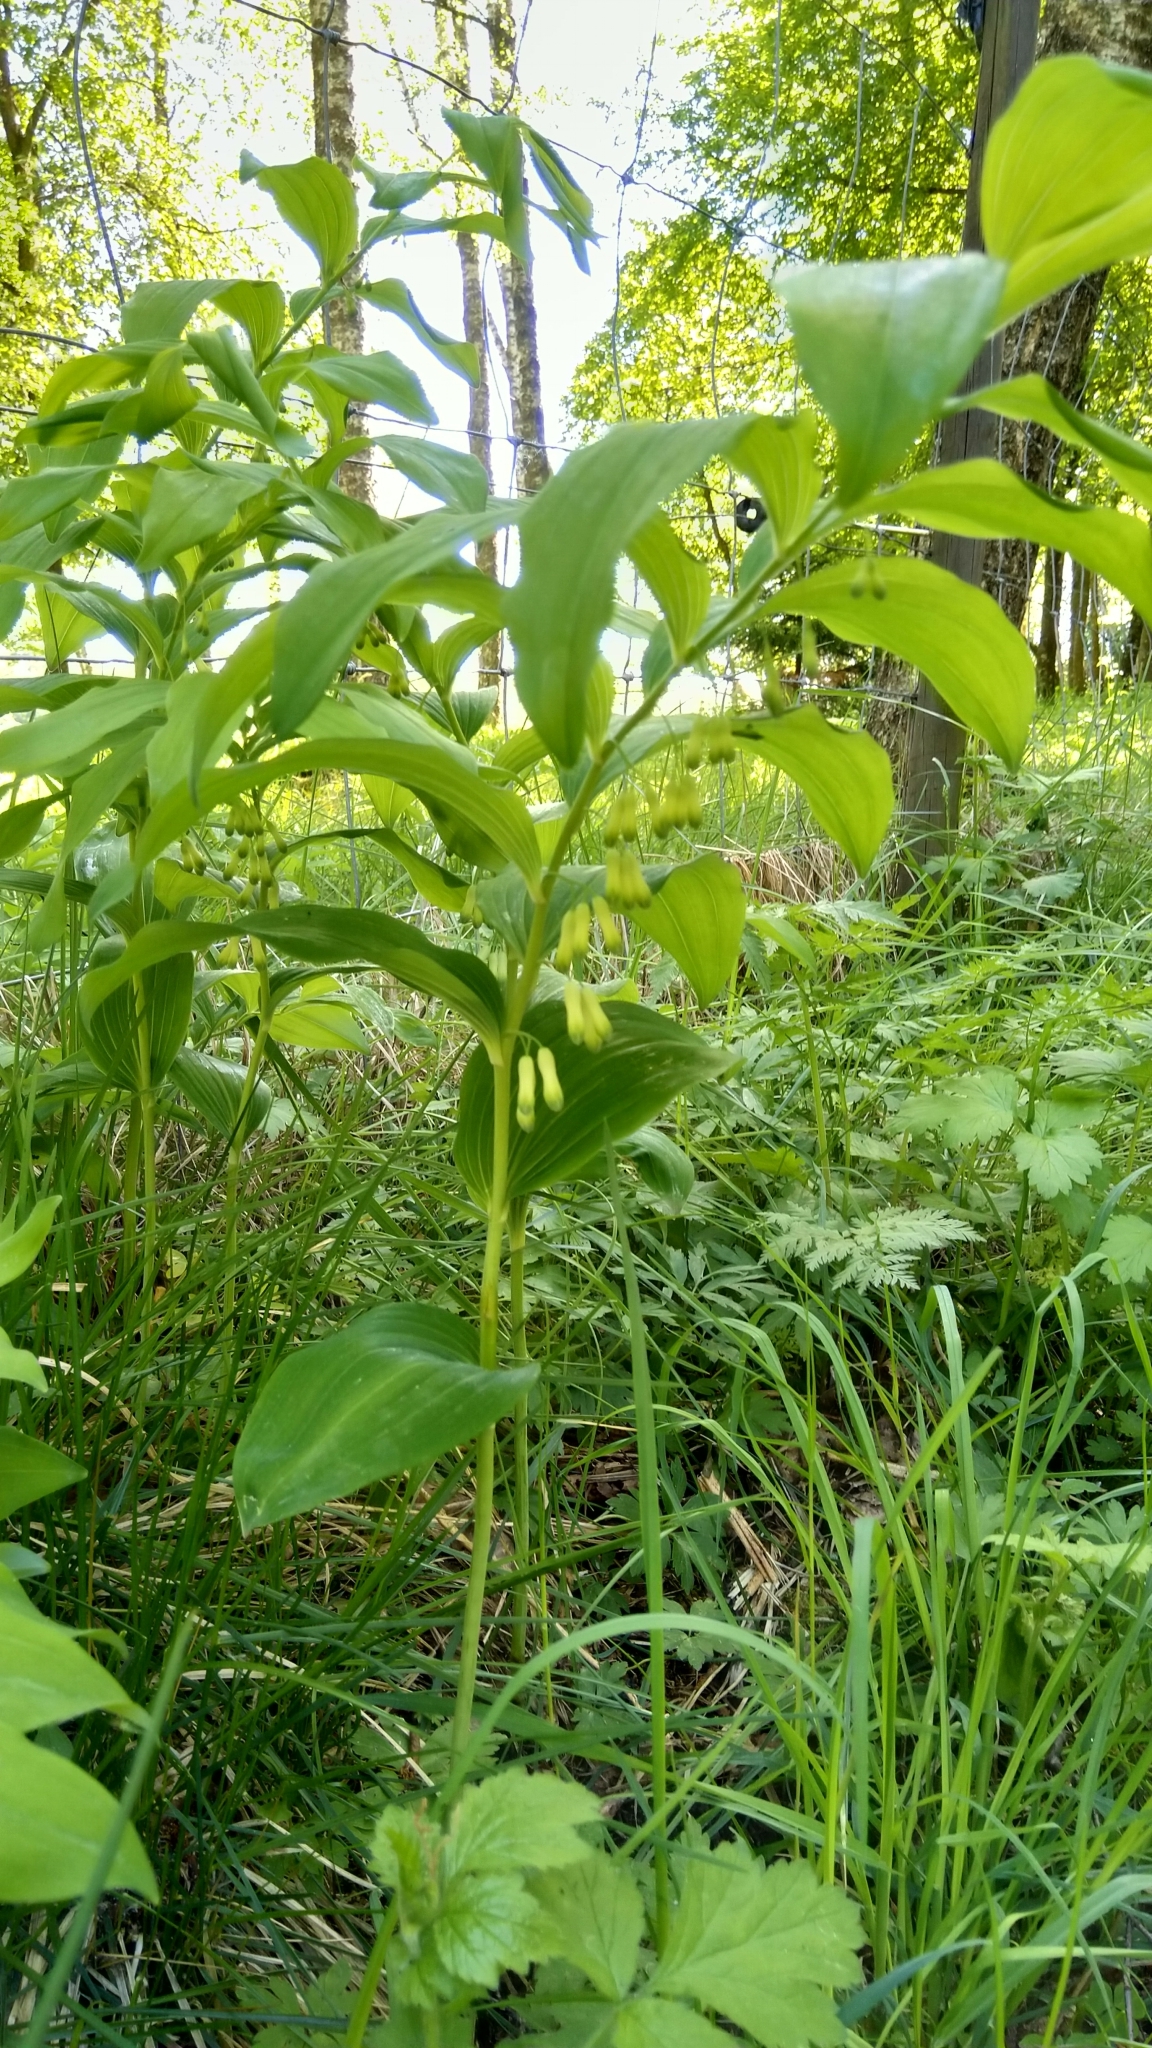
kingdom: Plantae
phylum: Tracheophyta
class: Liliopsida
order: Asparagales
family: Asparagaceae
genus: Polygonatum
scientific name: Polygonatum multiflorum
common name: Solomon's-seal
